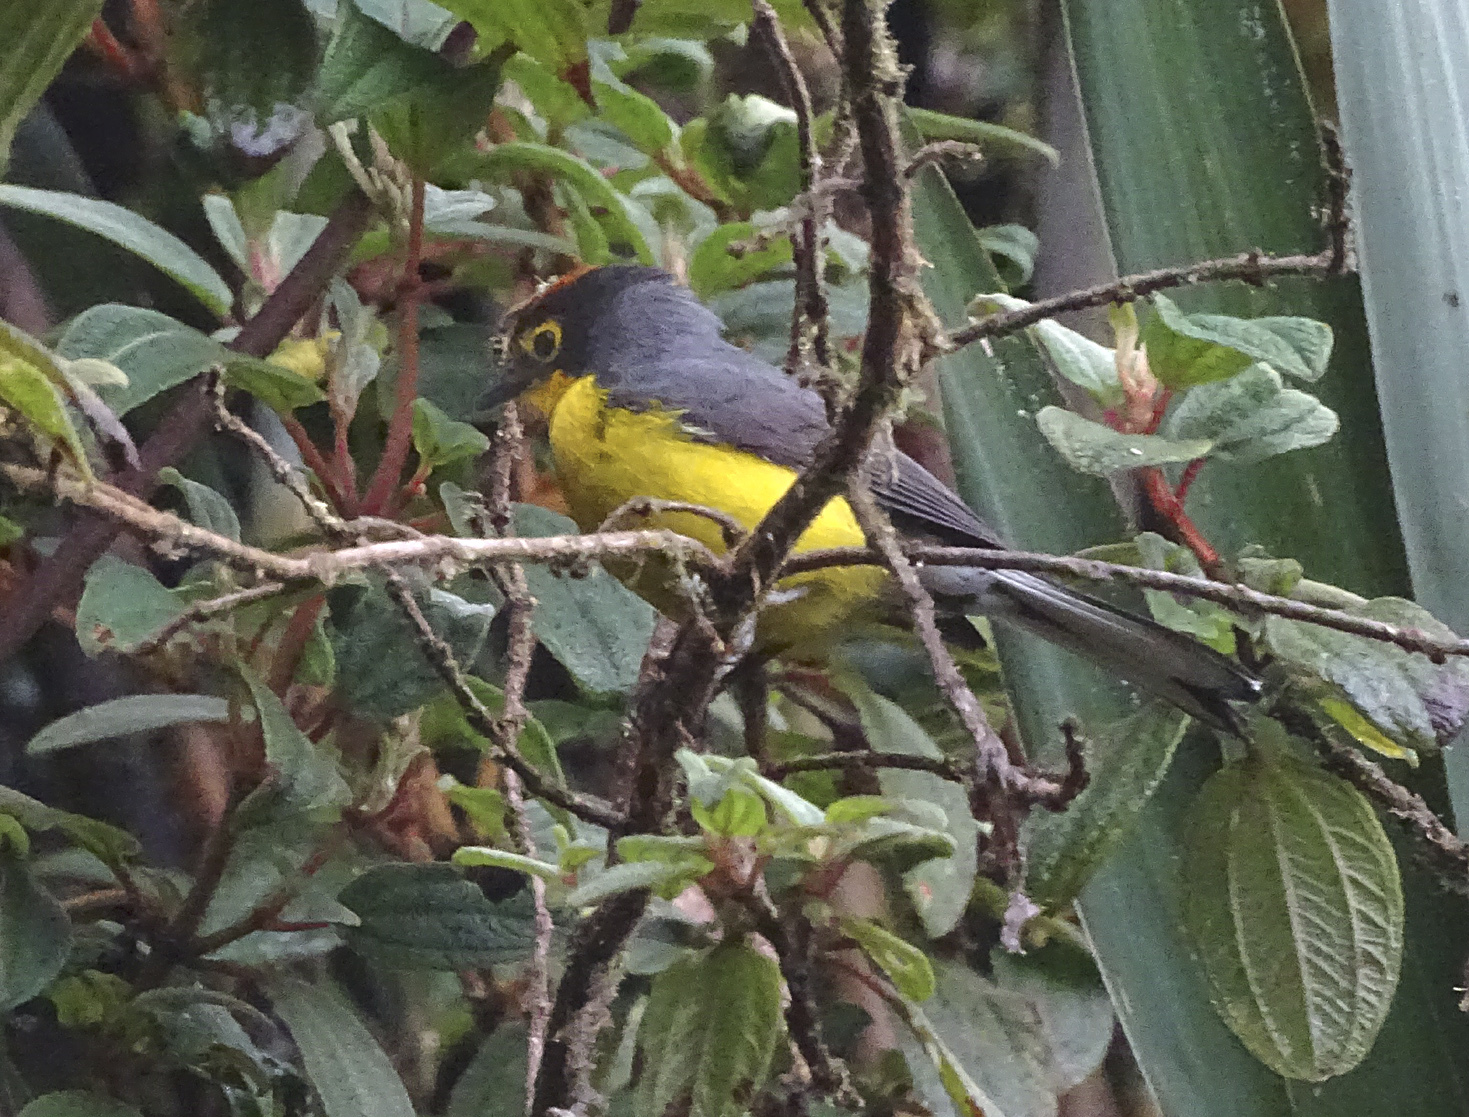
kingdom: Animalia
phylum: Chordata
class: Aves
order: Passeriformes
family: Parulidae
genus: Myioborus
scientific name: Myioborus melanocephalus
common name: Spectacled whitestart
